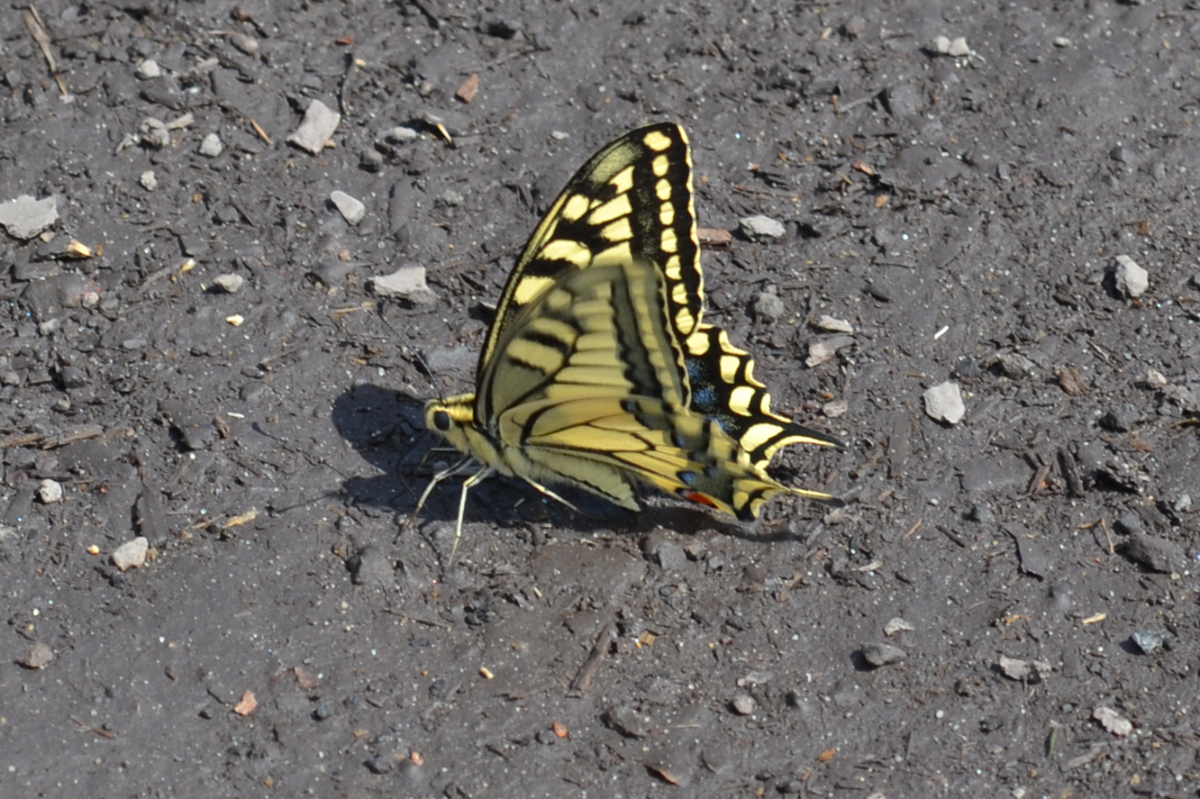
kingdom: Animalia
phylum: Arthropoda
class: Insecta
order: Lepidoptera
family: Papilionidae
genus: Papilio
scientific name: Papilio machaon
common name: Swallowtail
